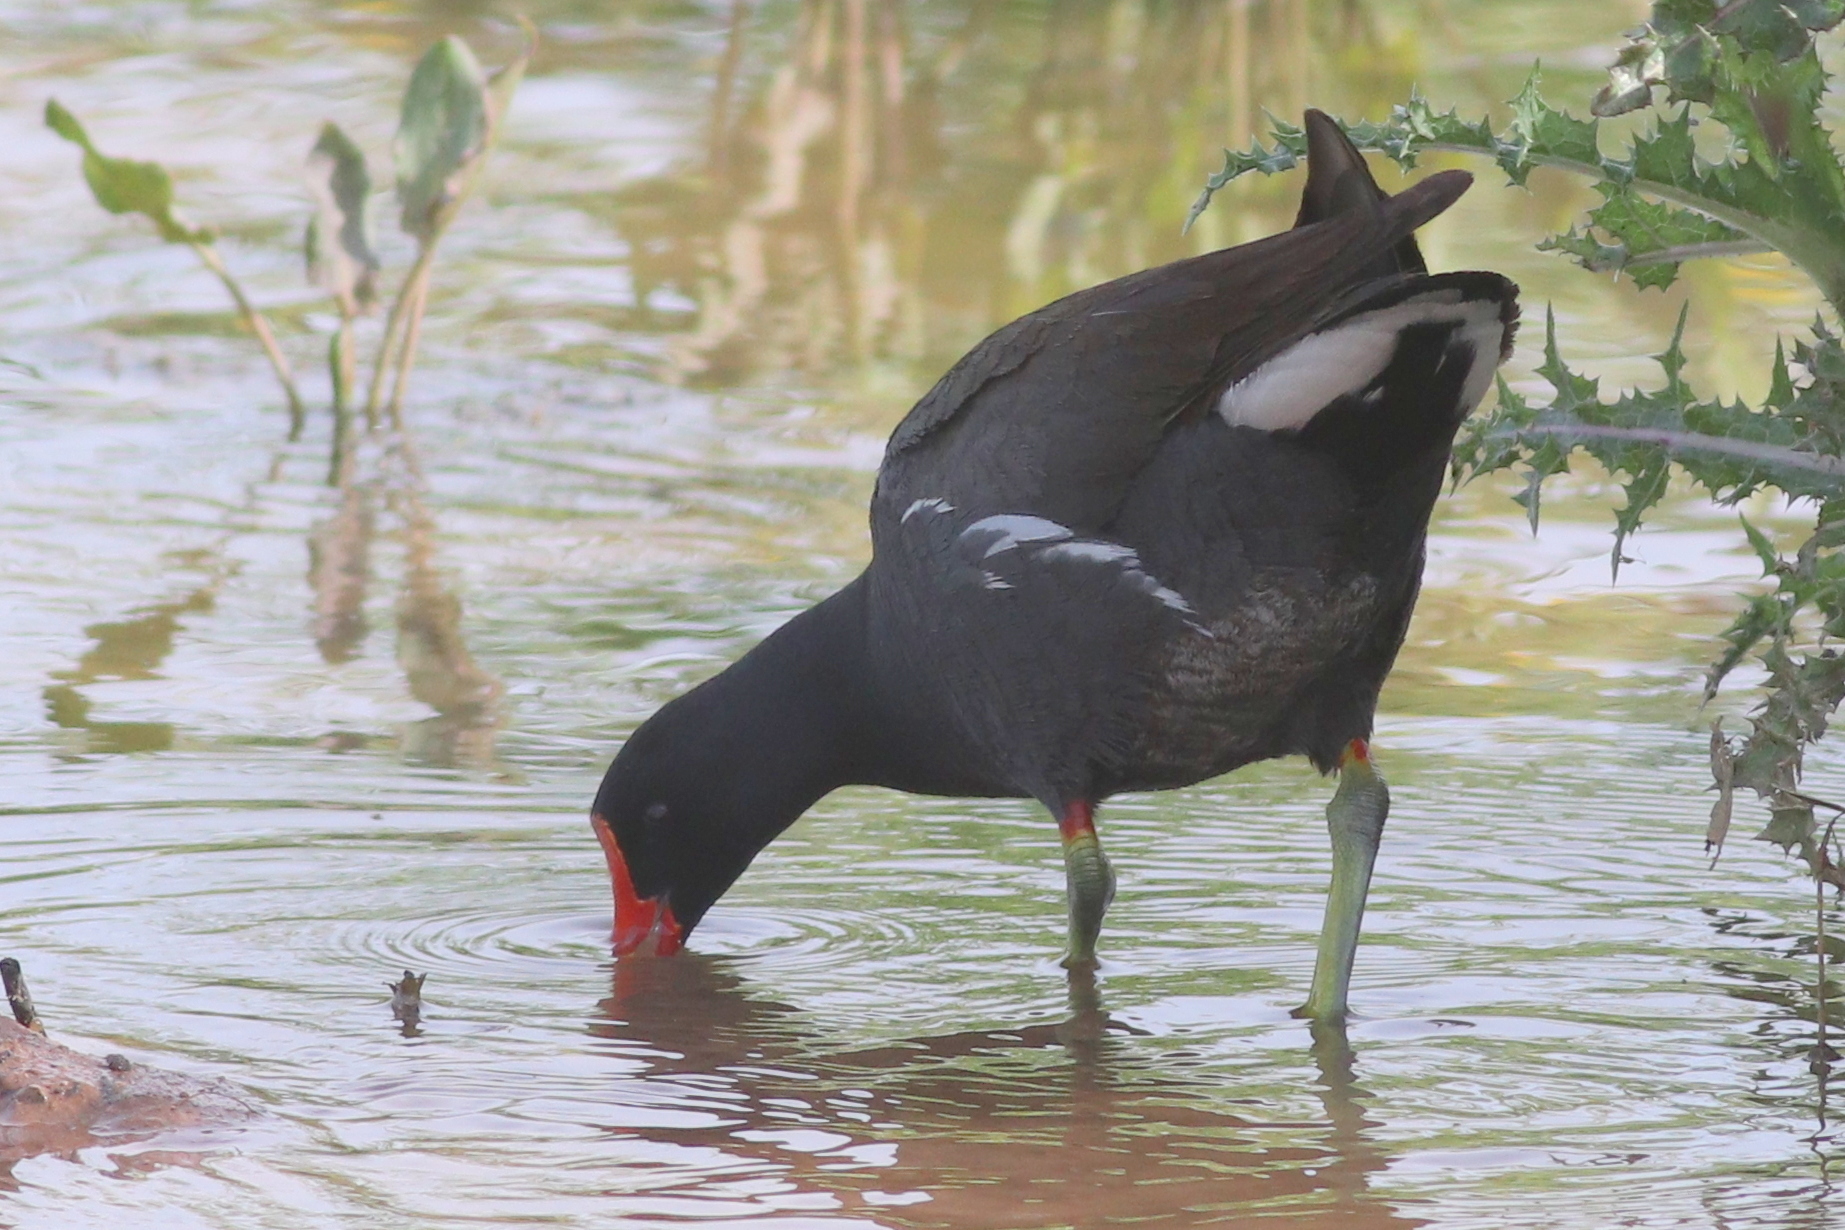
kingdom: Animalia
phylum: Chordata
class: Aves
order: Gruiformes
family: Rallidae
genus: Gallinula
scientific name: Gallinula chloropus
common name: Common moorhen
